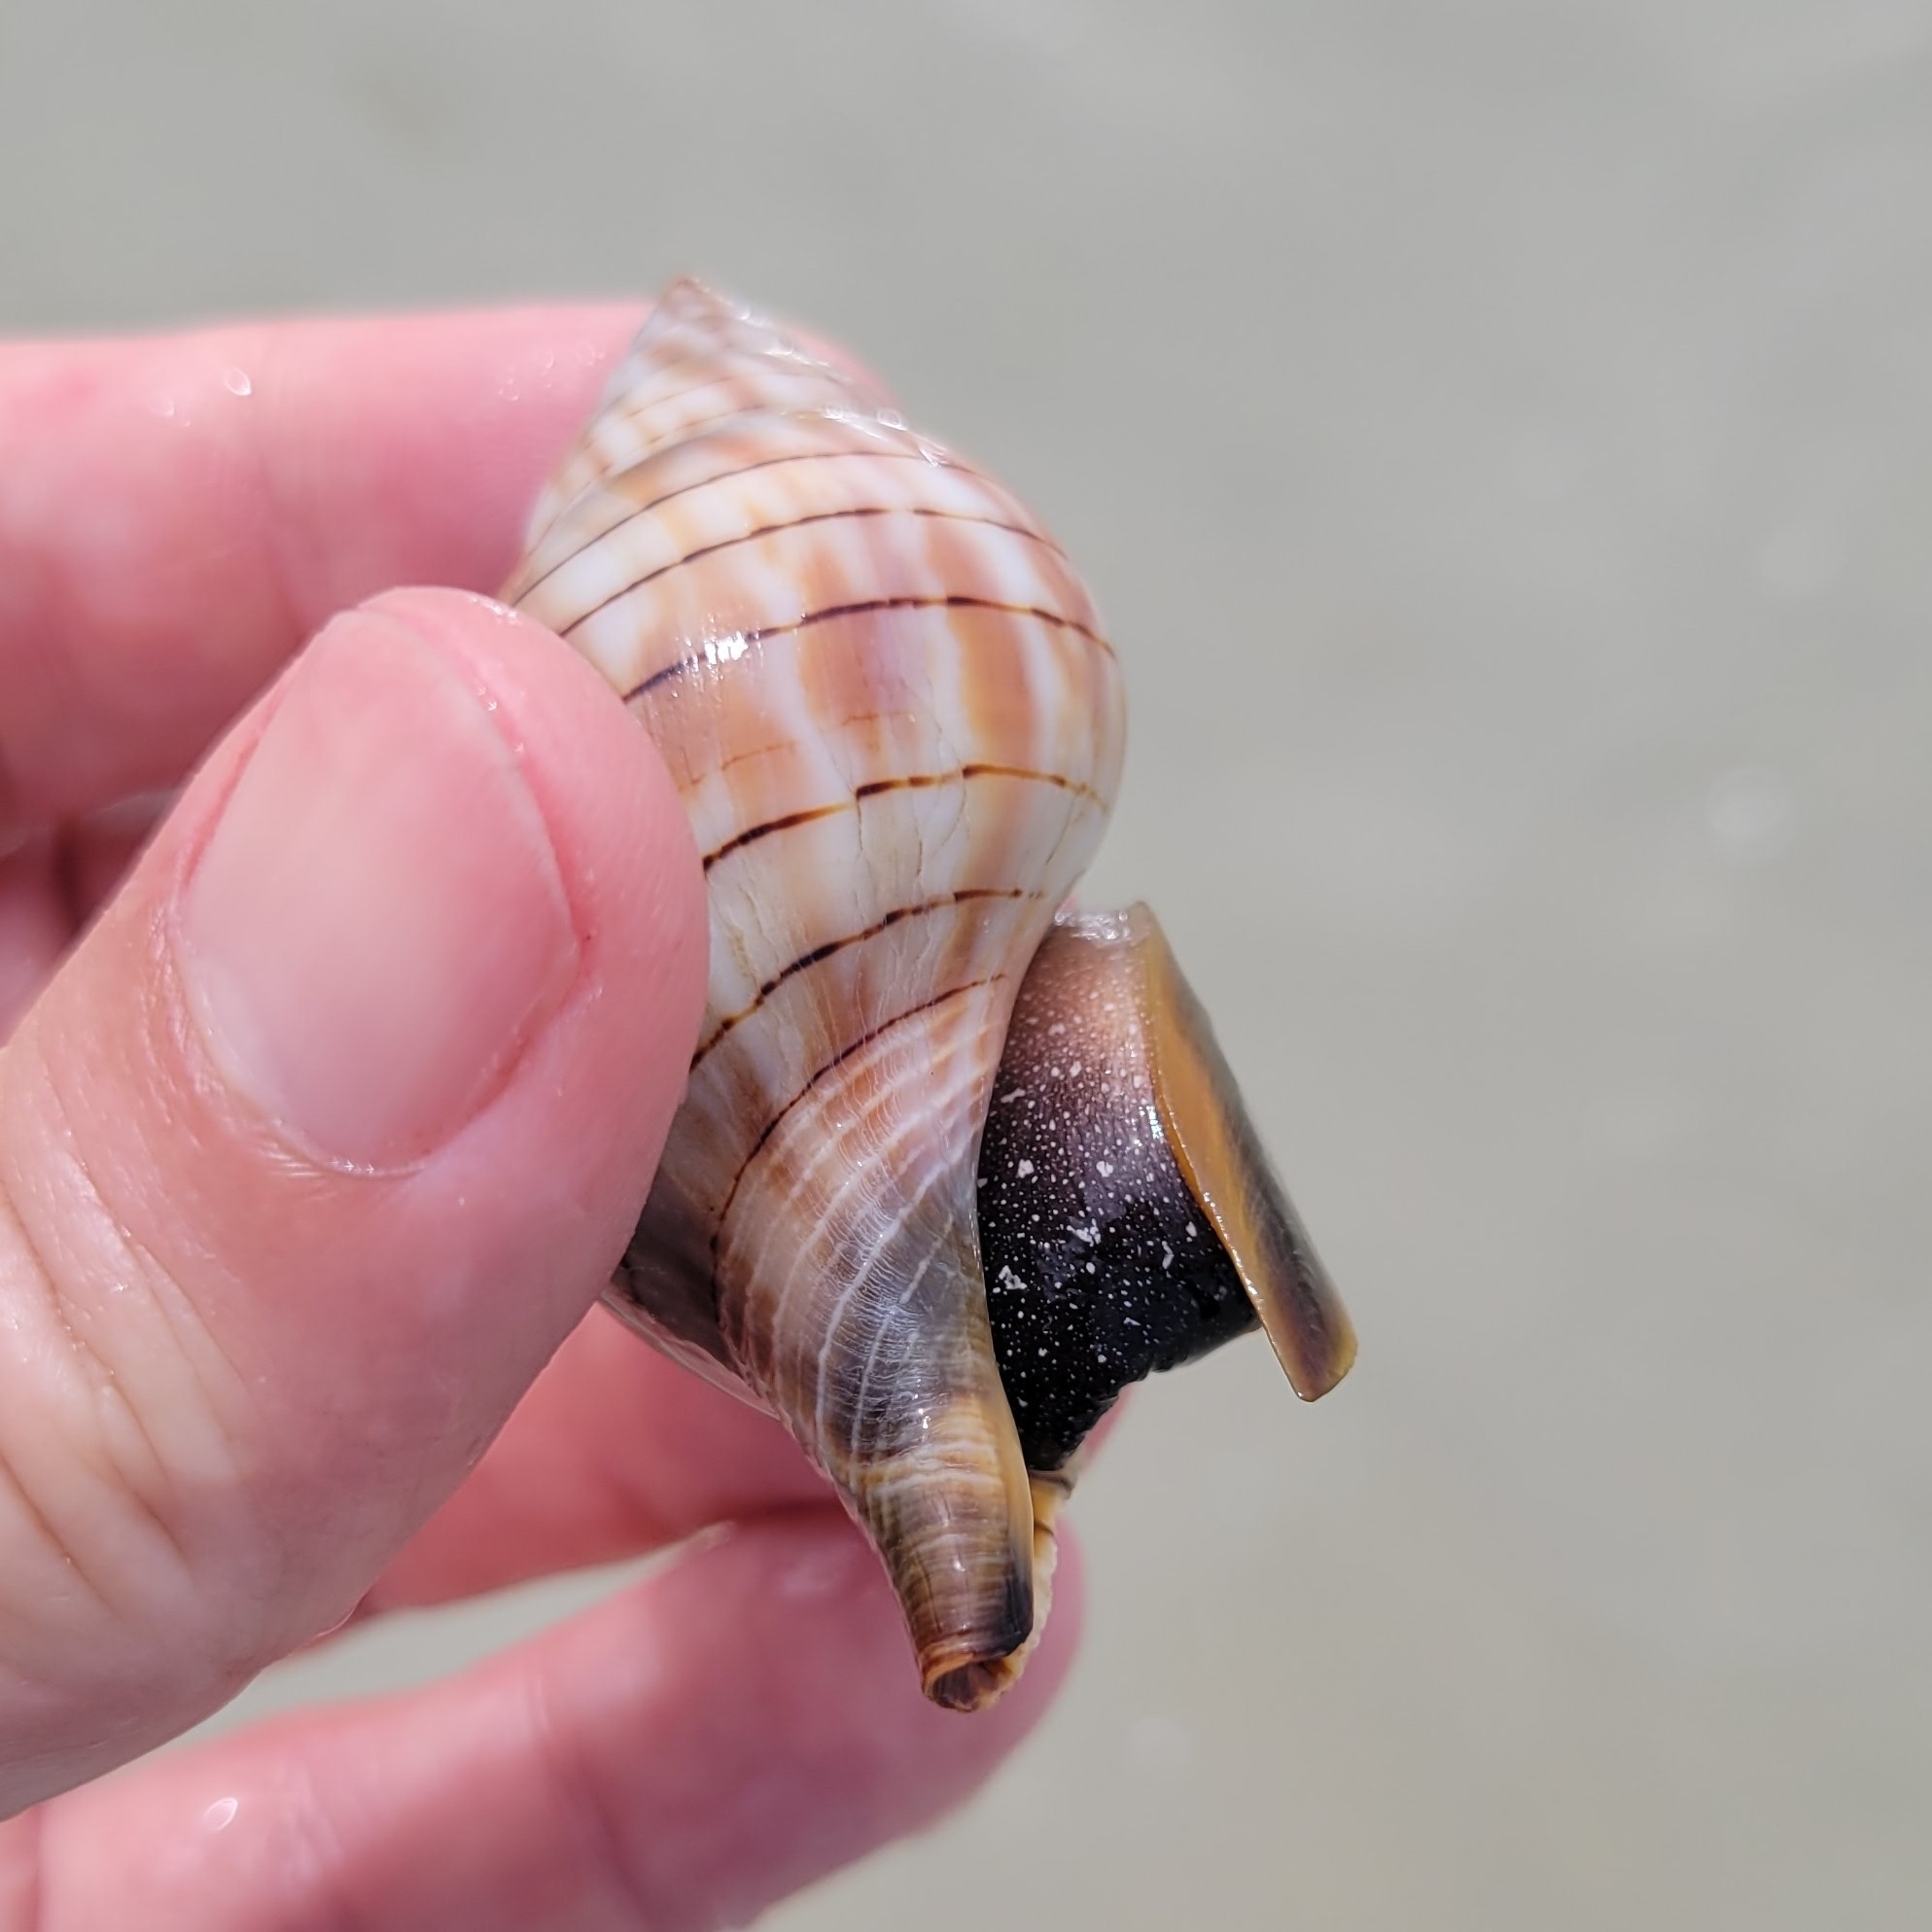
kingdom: Animalia
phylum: Mollusca
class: Gastropoda
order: Neogastropoda
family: Fasciolariidae
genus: Cinctura
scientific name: Cinctura hunteria
